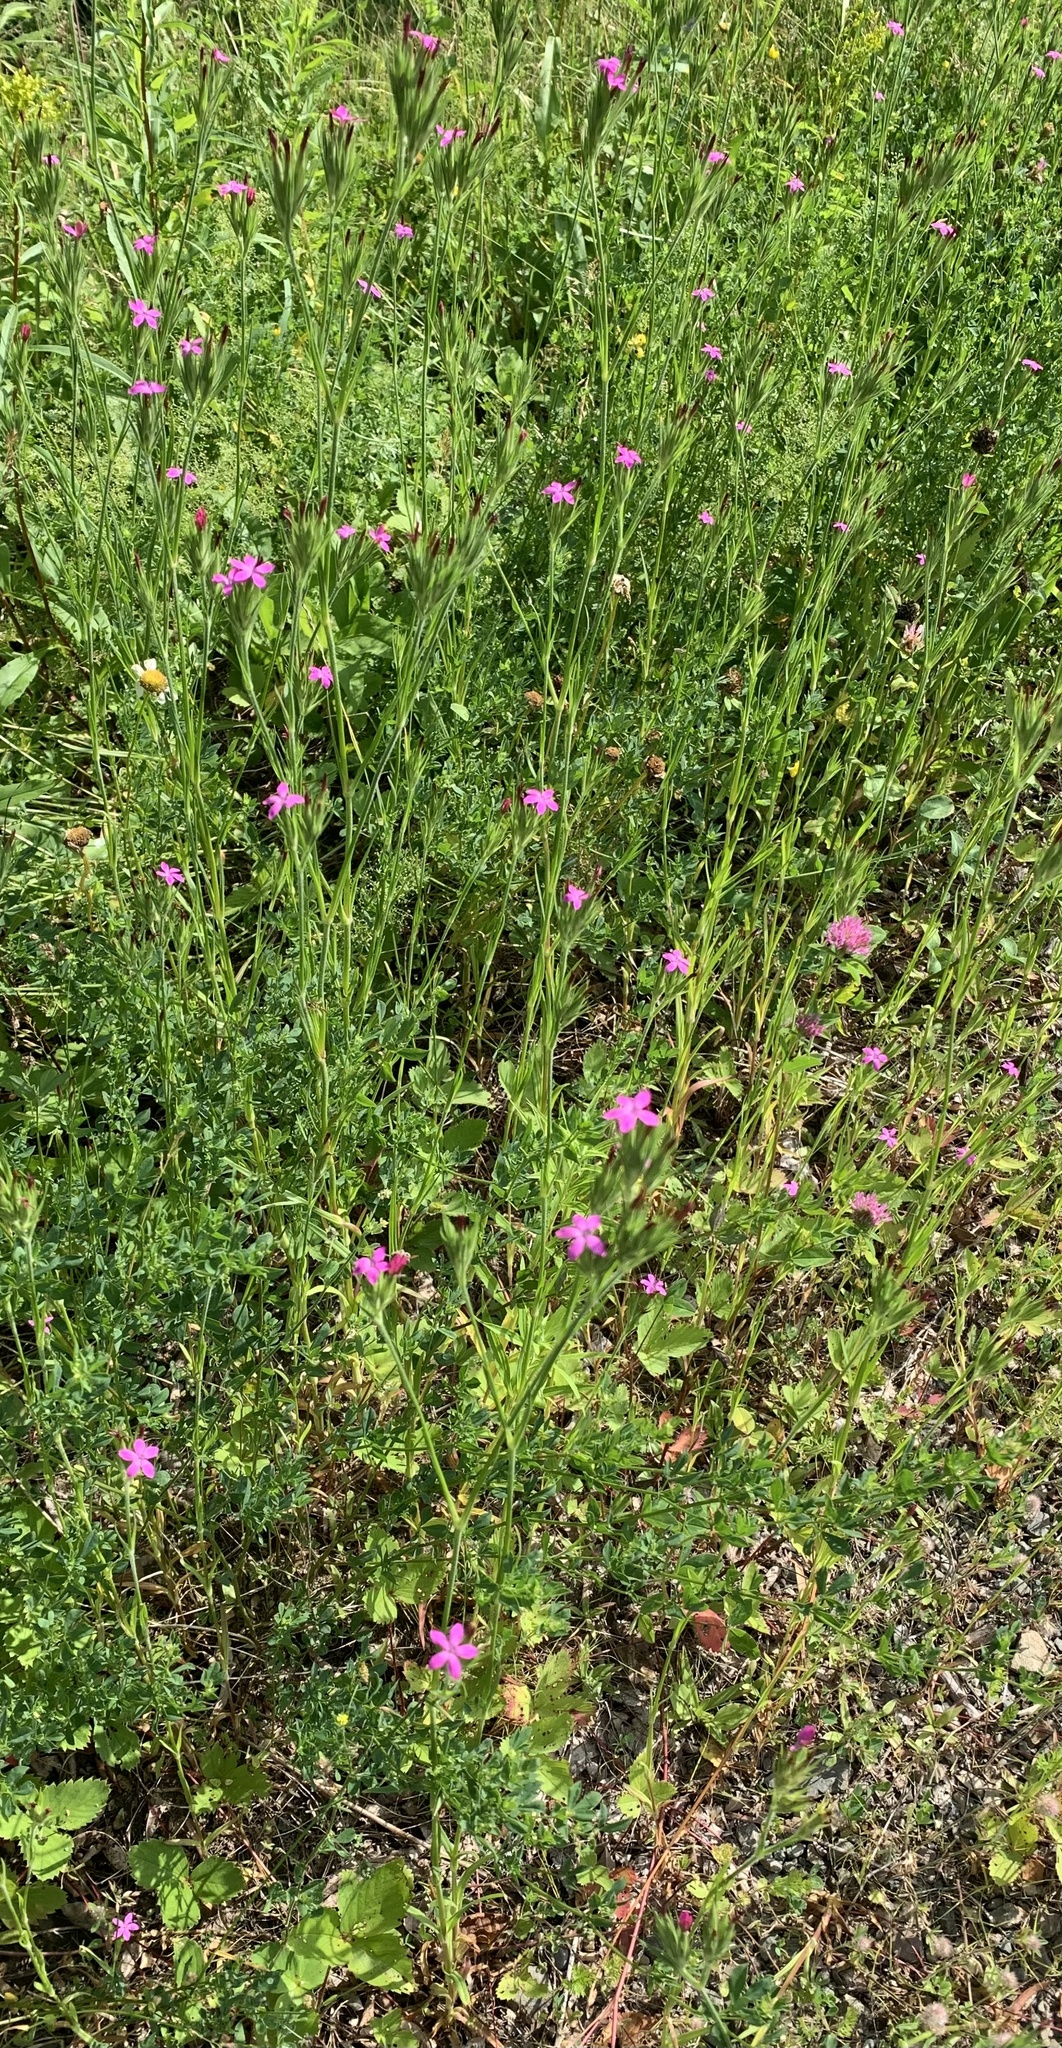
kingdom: Plantae
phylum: Tracheophyta
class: Magnoliopsida
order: Caryophyllales
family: Caryophyllaceae
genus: Dianthus
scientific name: Dianthus armeria
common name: Deptford pink
